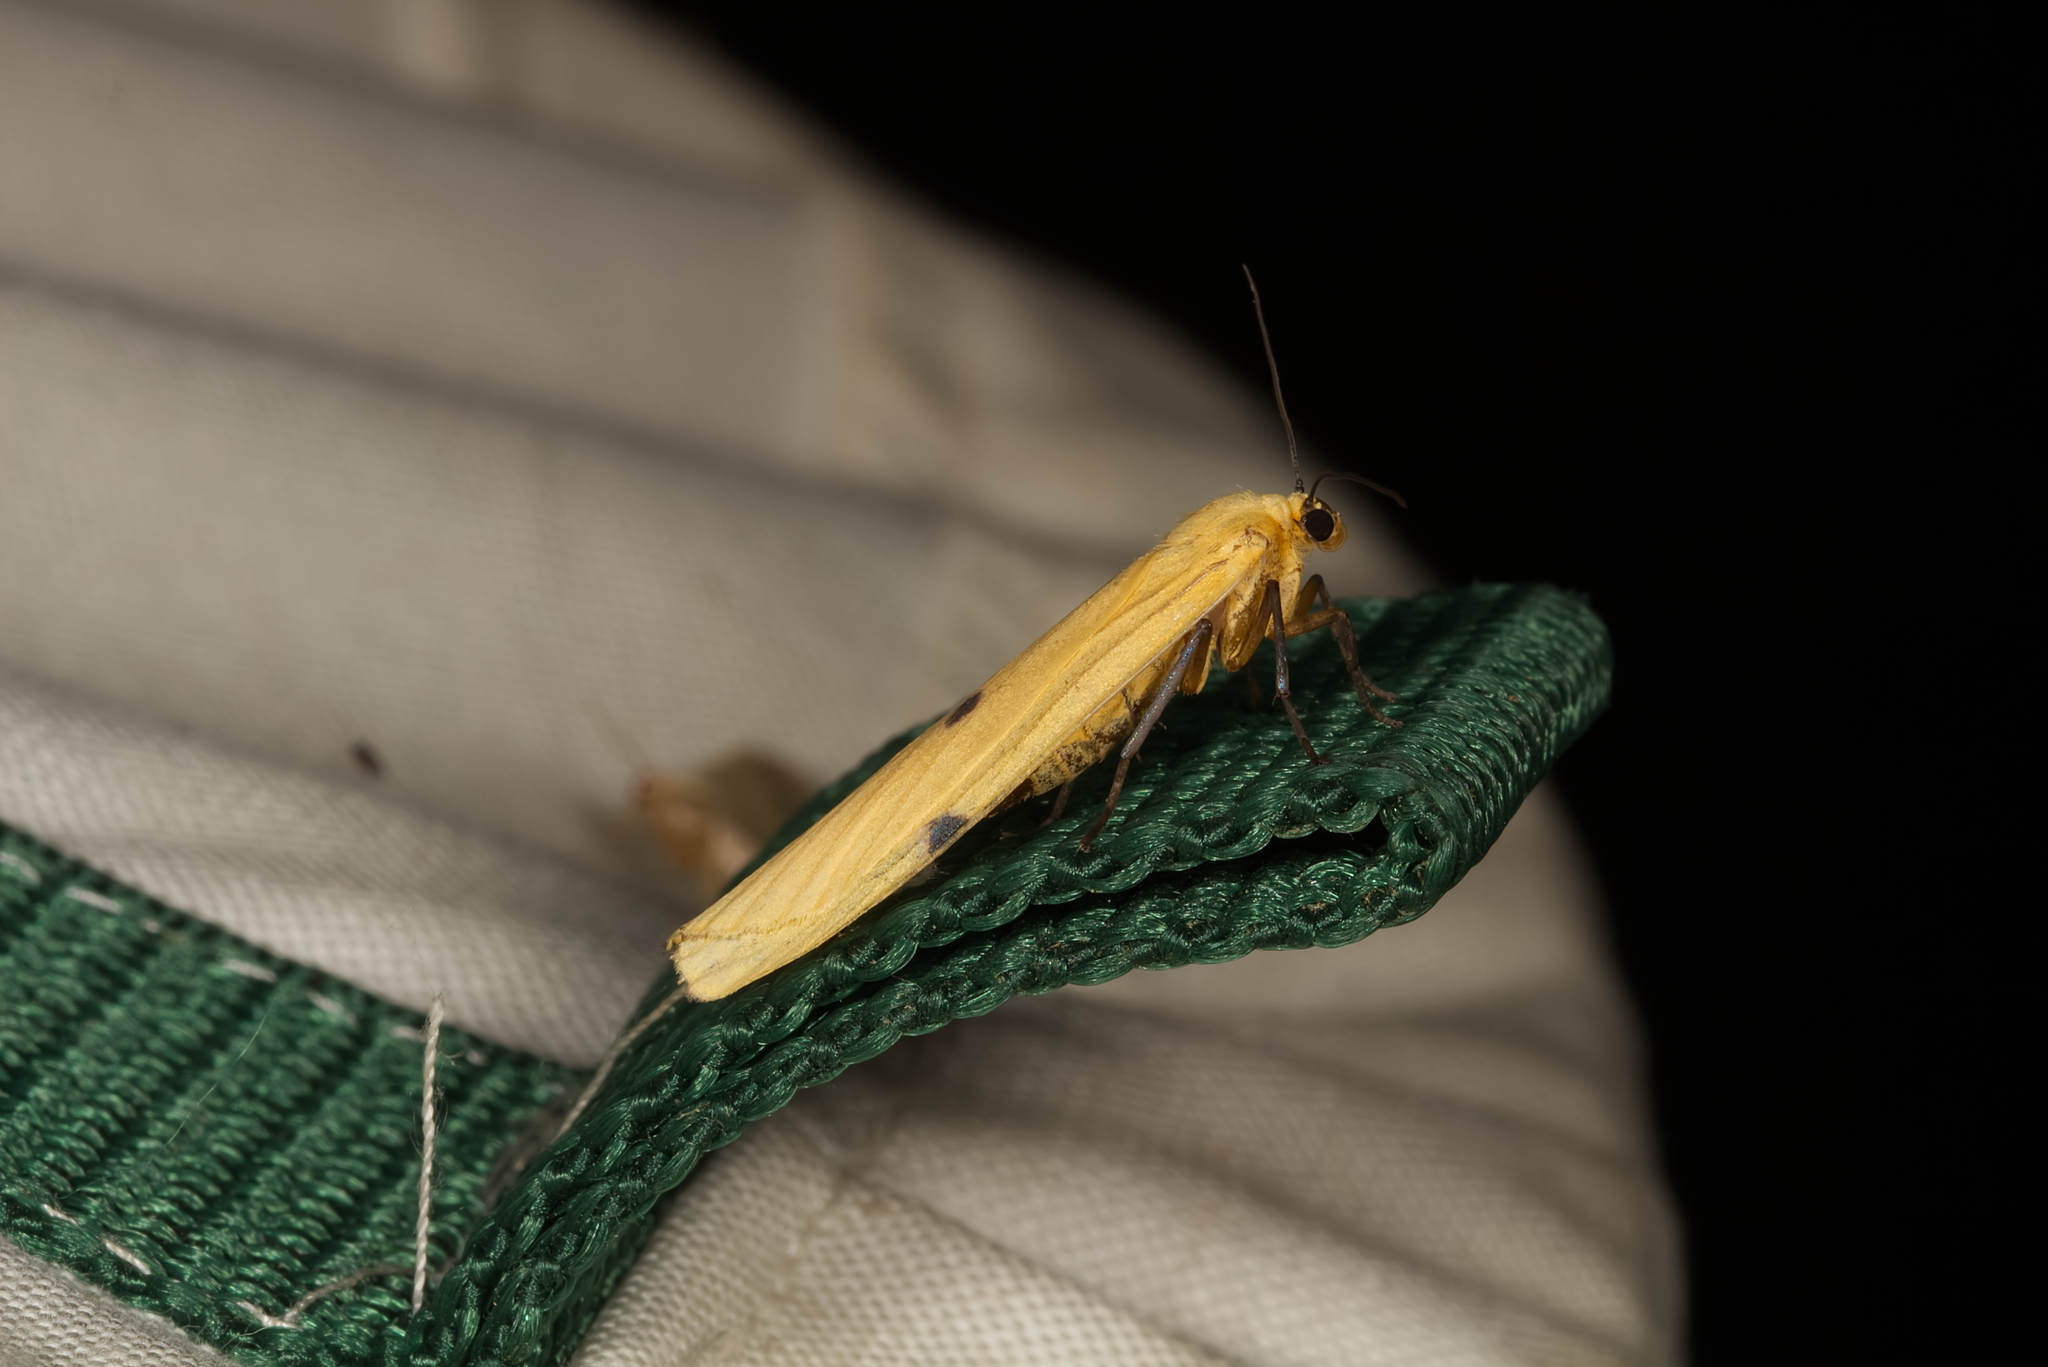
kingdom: Animalia
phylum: Arthropoda
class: Insecta
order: Lepidoptera
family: Erebidae
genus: Lithosia
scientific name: Lithosia quadra
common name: Four-spotted footman
